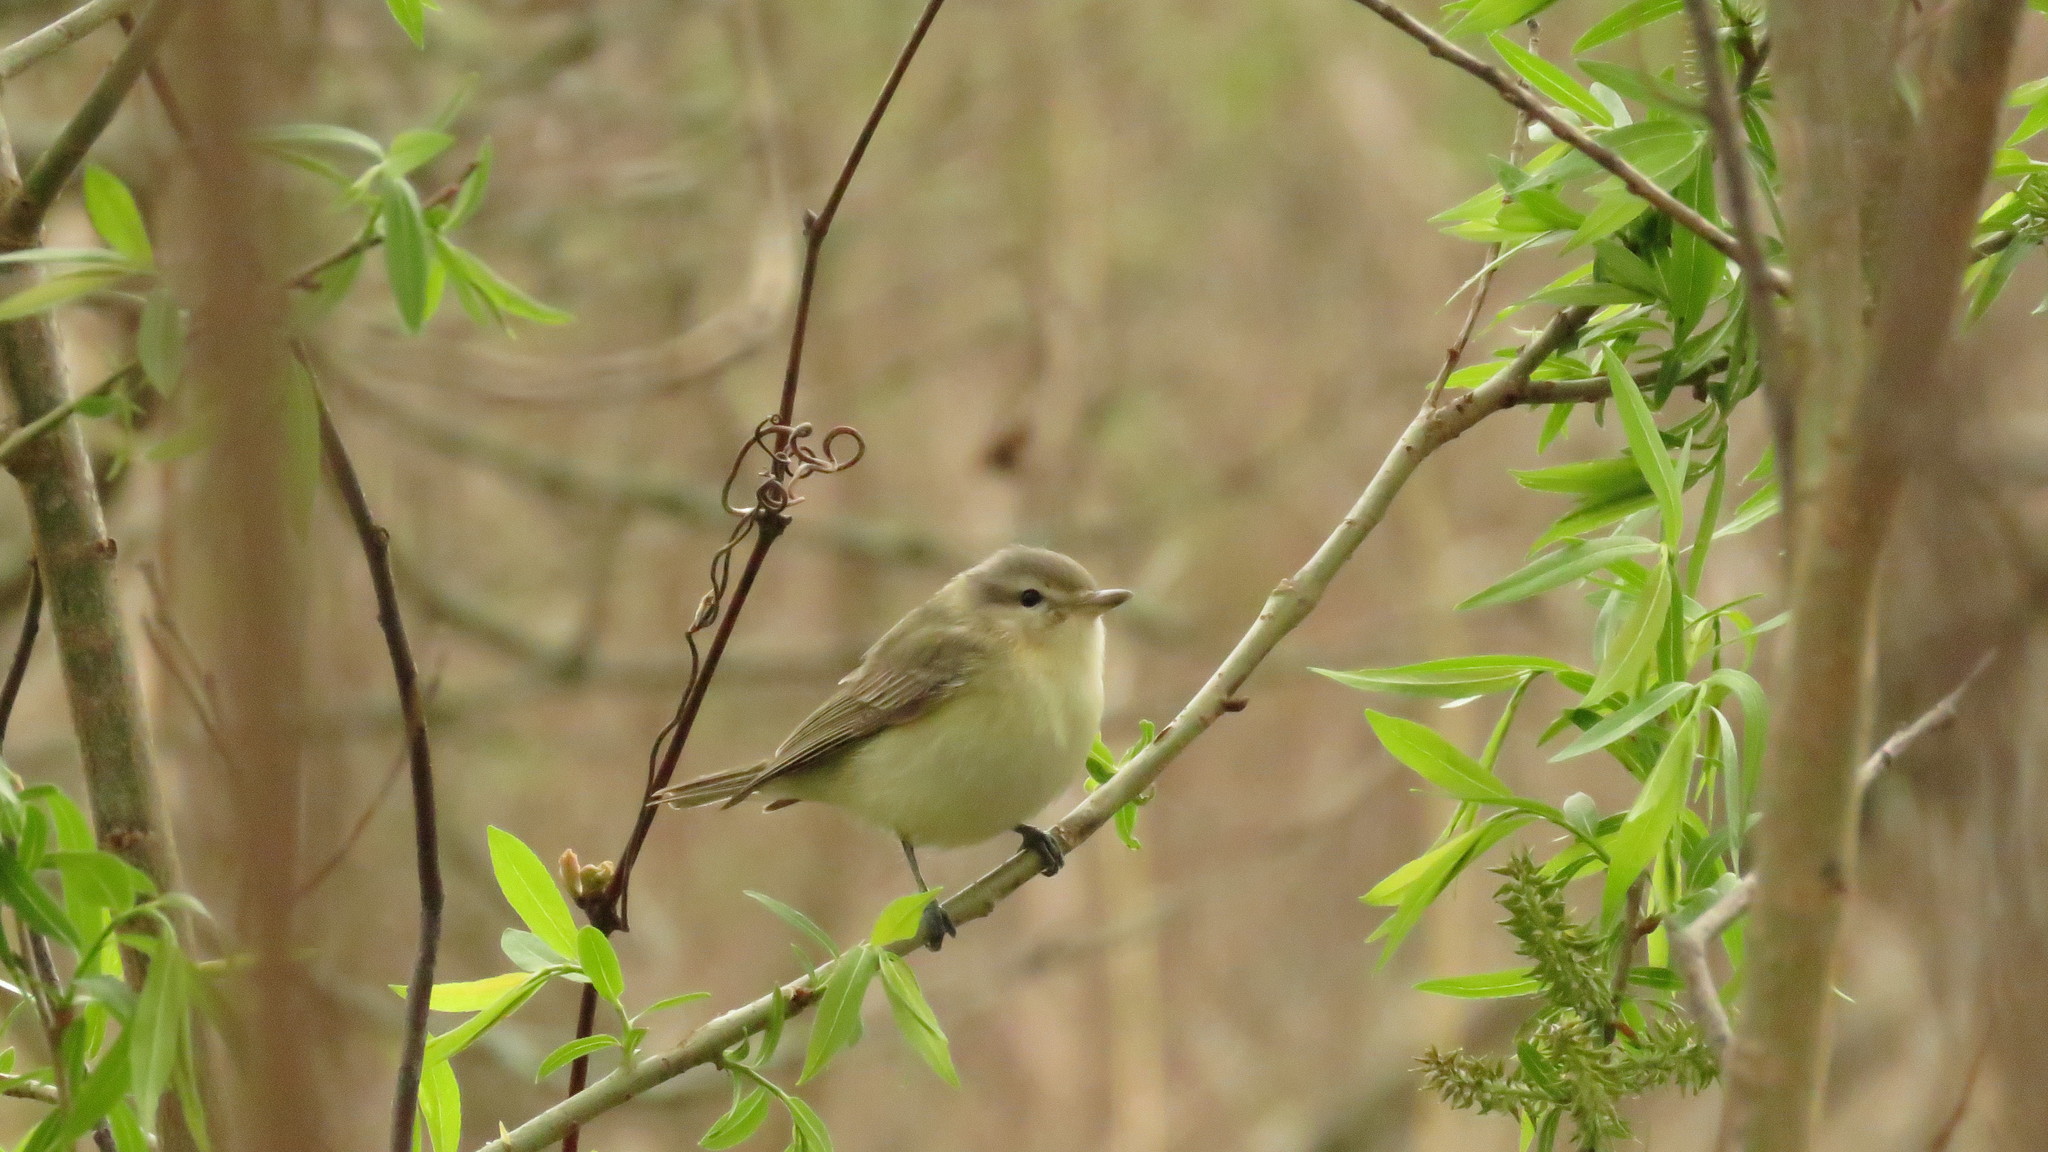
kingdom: Animalia
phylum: Chordata
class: Aves
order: Passeriformes
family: Vireonidae
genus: Vireo
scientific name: Vireo gilvus
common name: Warbling vireo
